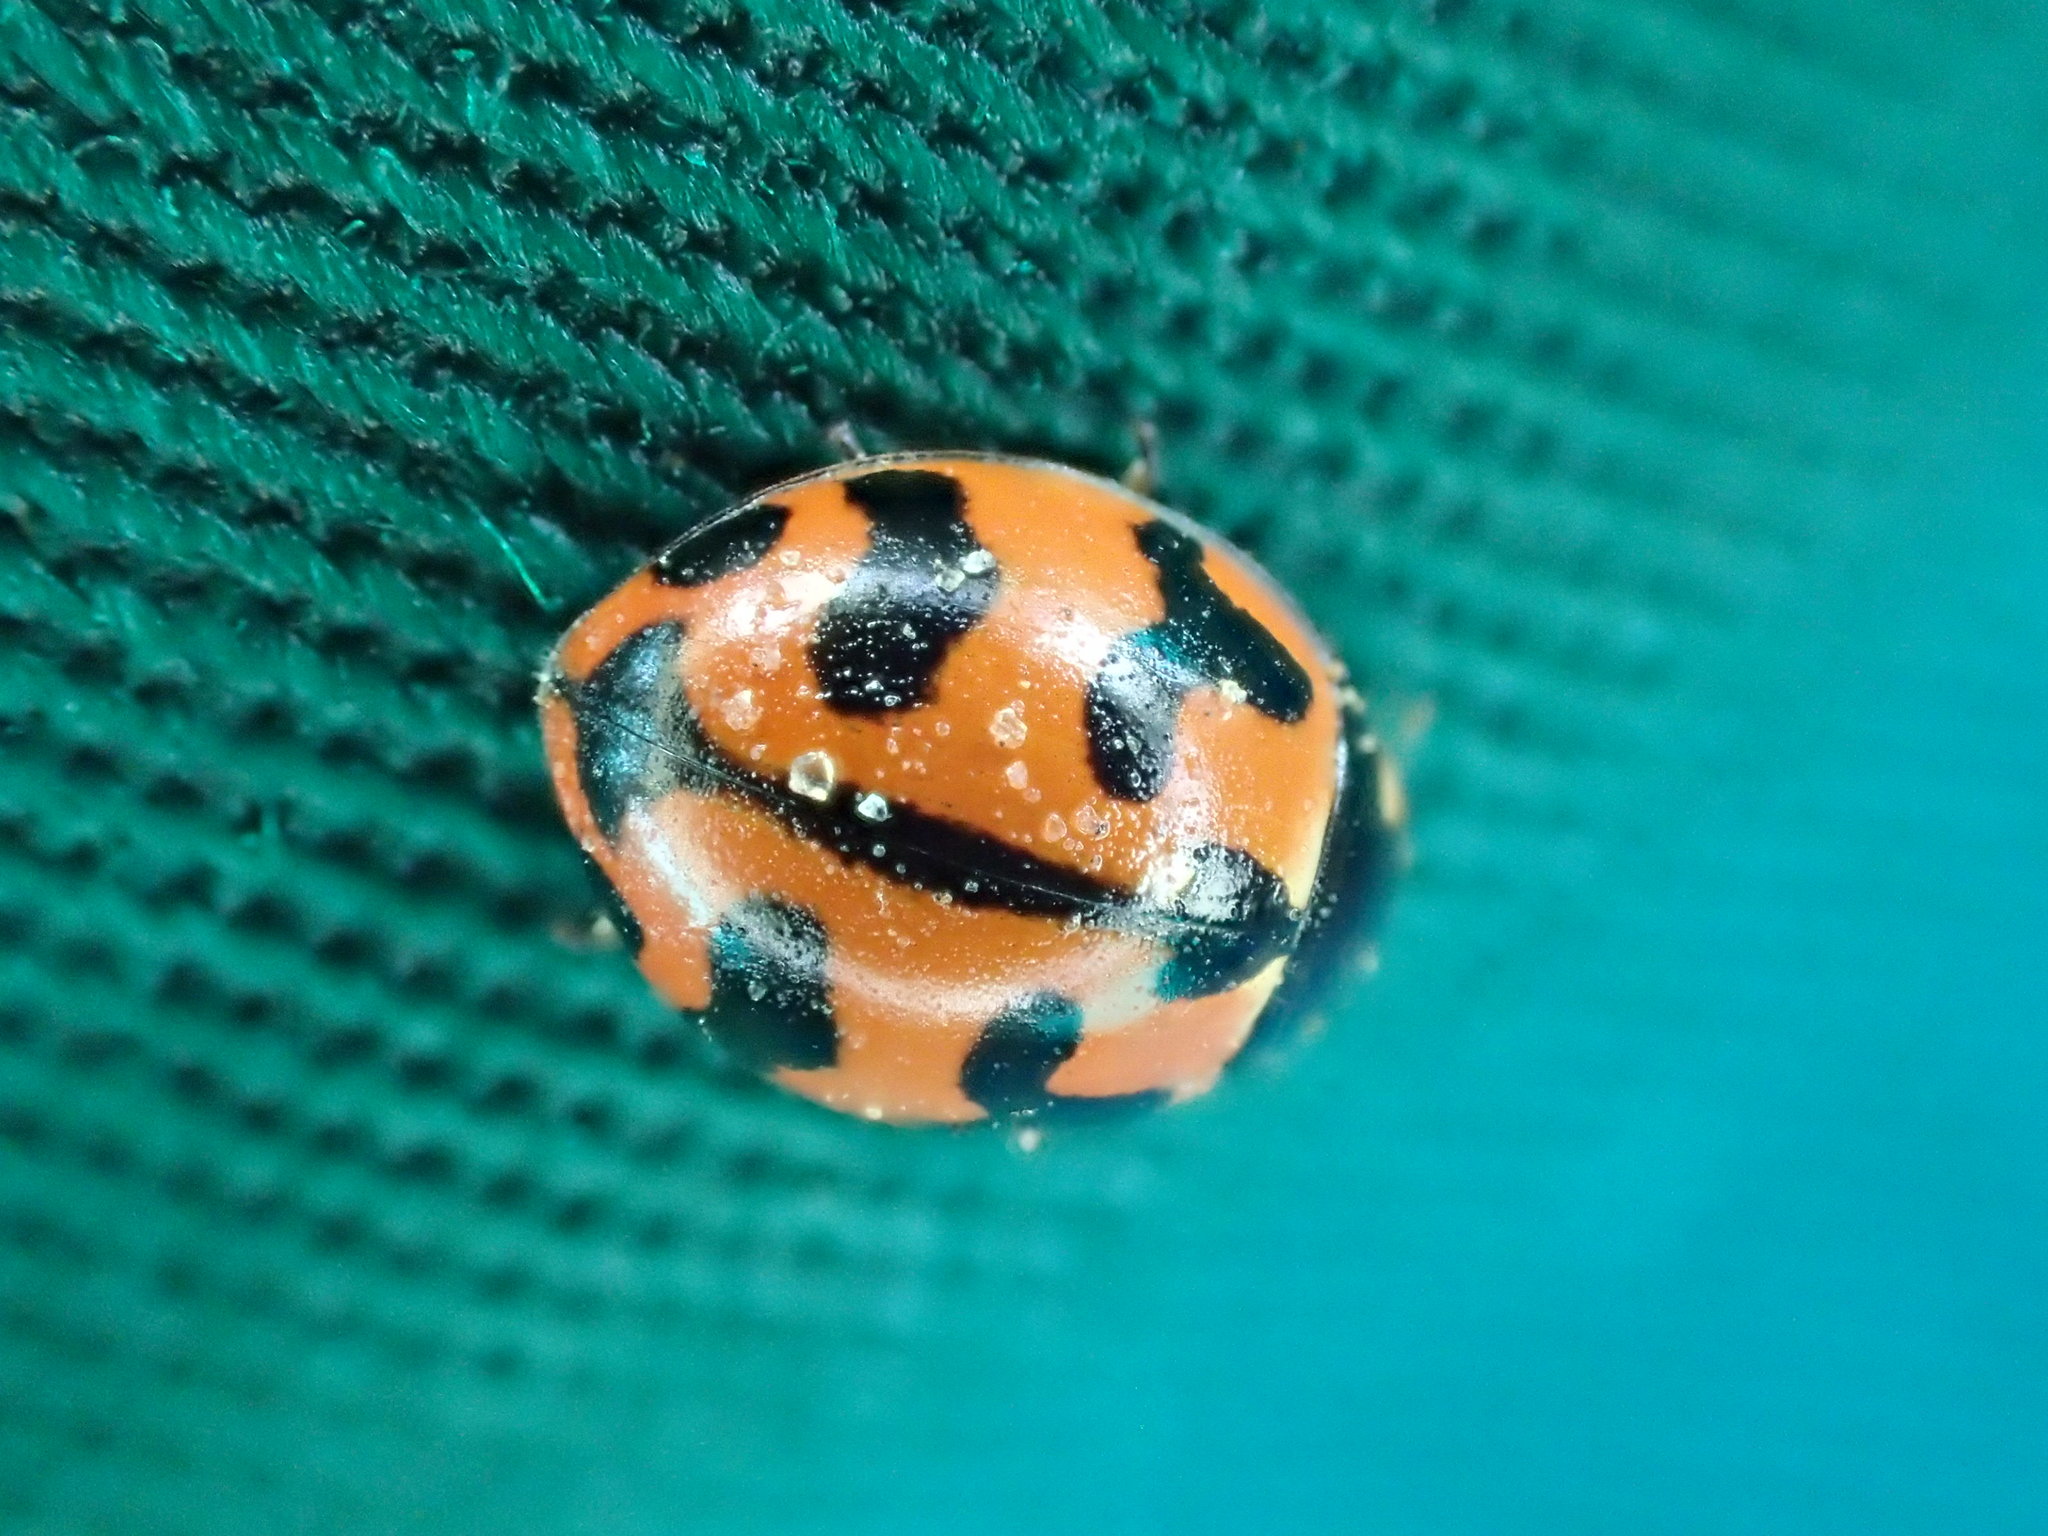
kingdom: Animalia
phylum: Arthropoda
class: Insecta
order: Coleoptera
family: Coccinellidae
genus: Coccinella
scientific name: Coccinella transversalis
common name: Transverse lady beetle
